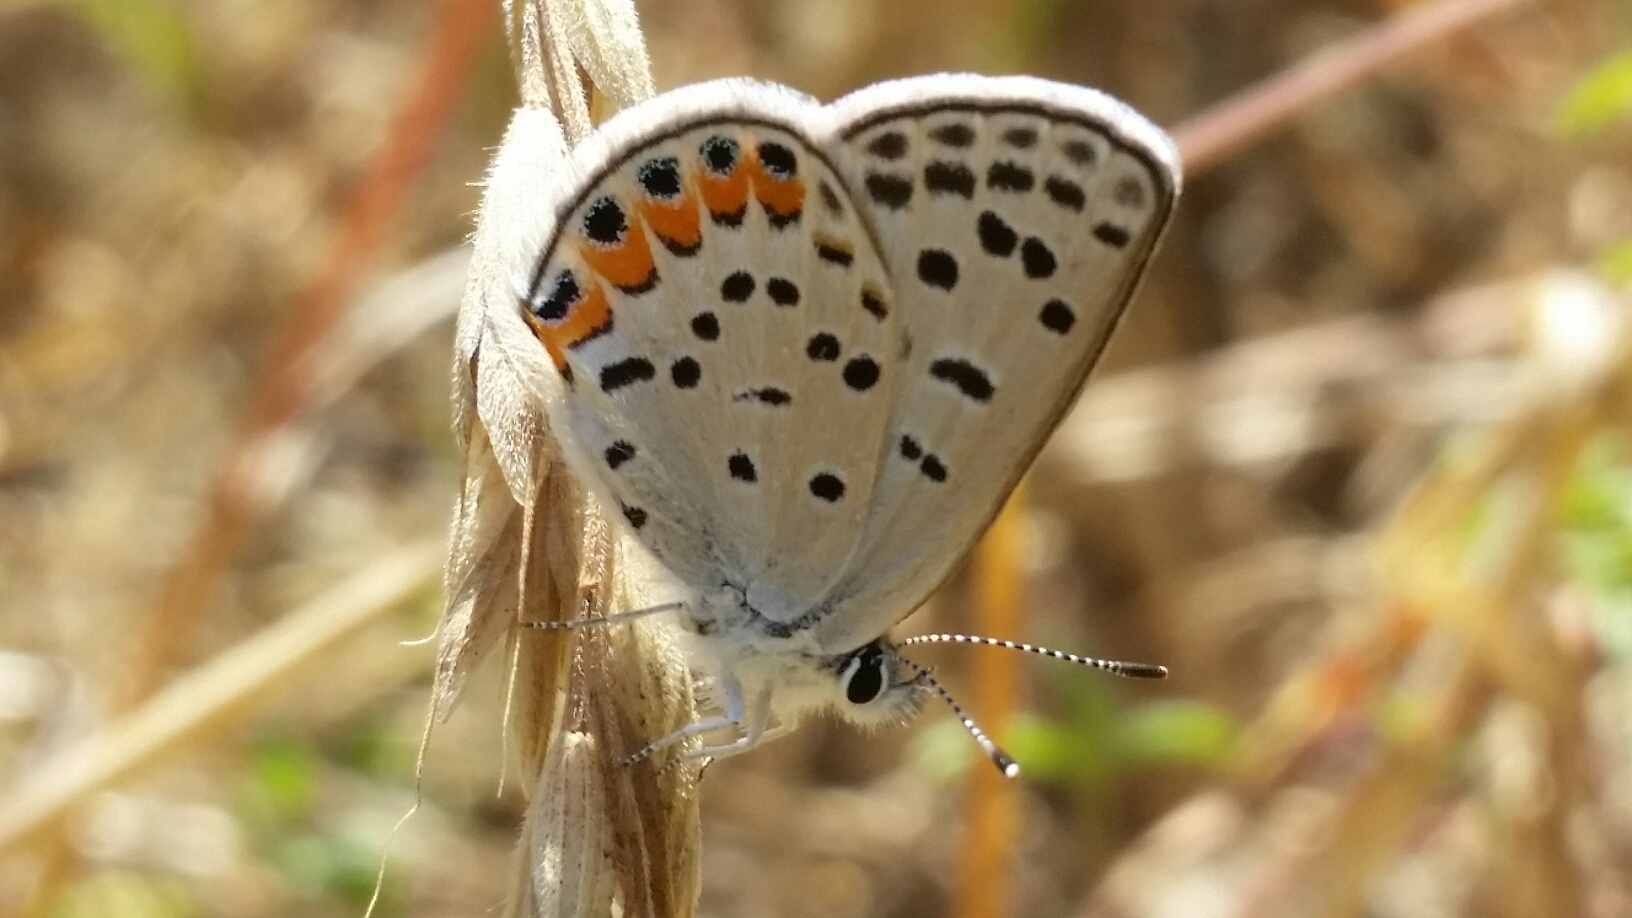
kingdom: Animalia
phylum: Arthropoda
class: Insecta
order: Lepidoptera
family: Lycaenidae
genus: Icaricia
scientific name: Icaricia acmon
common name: Acmon blue
